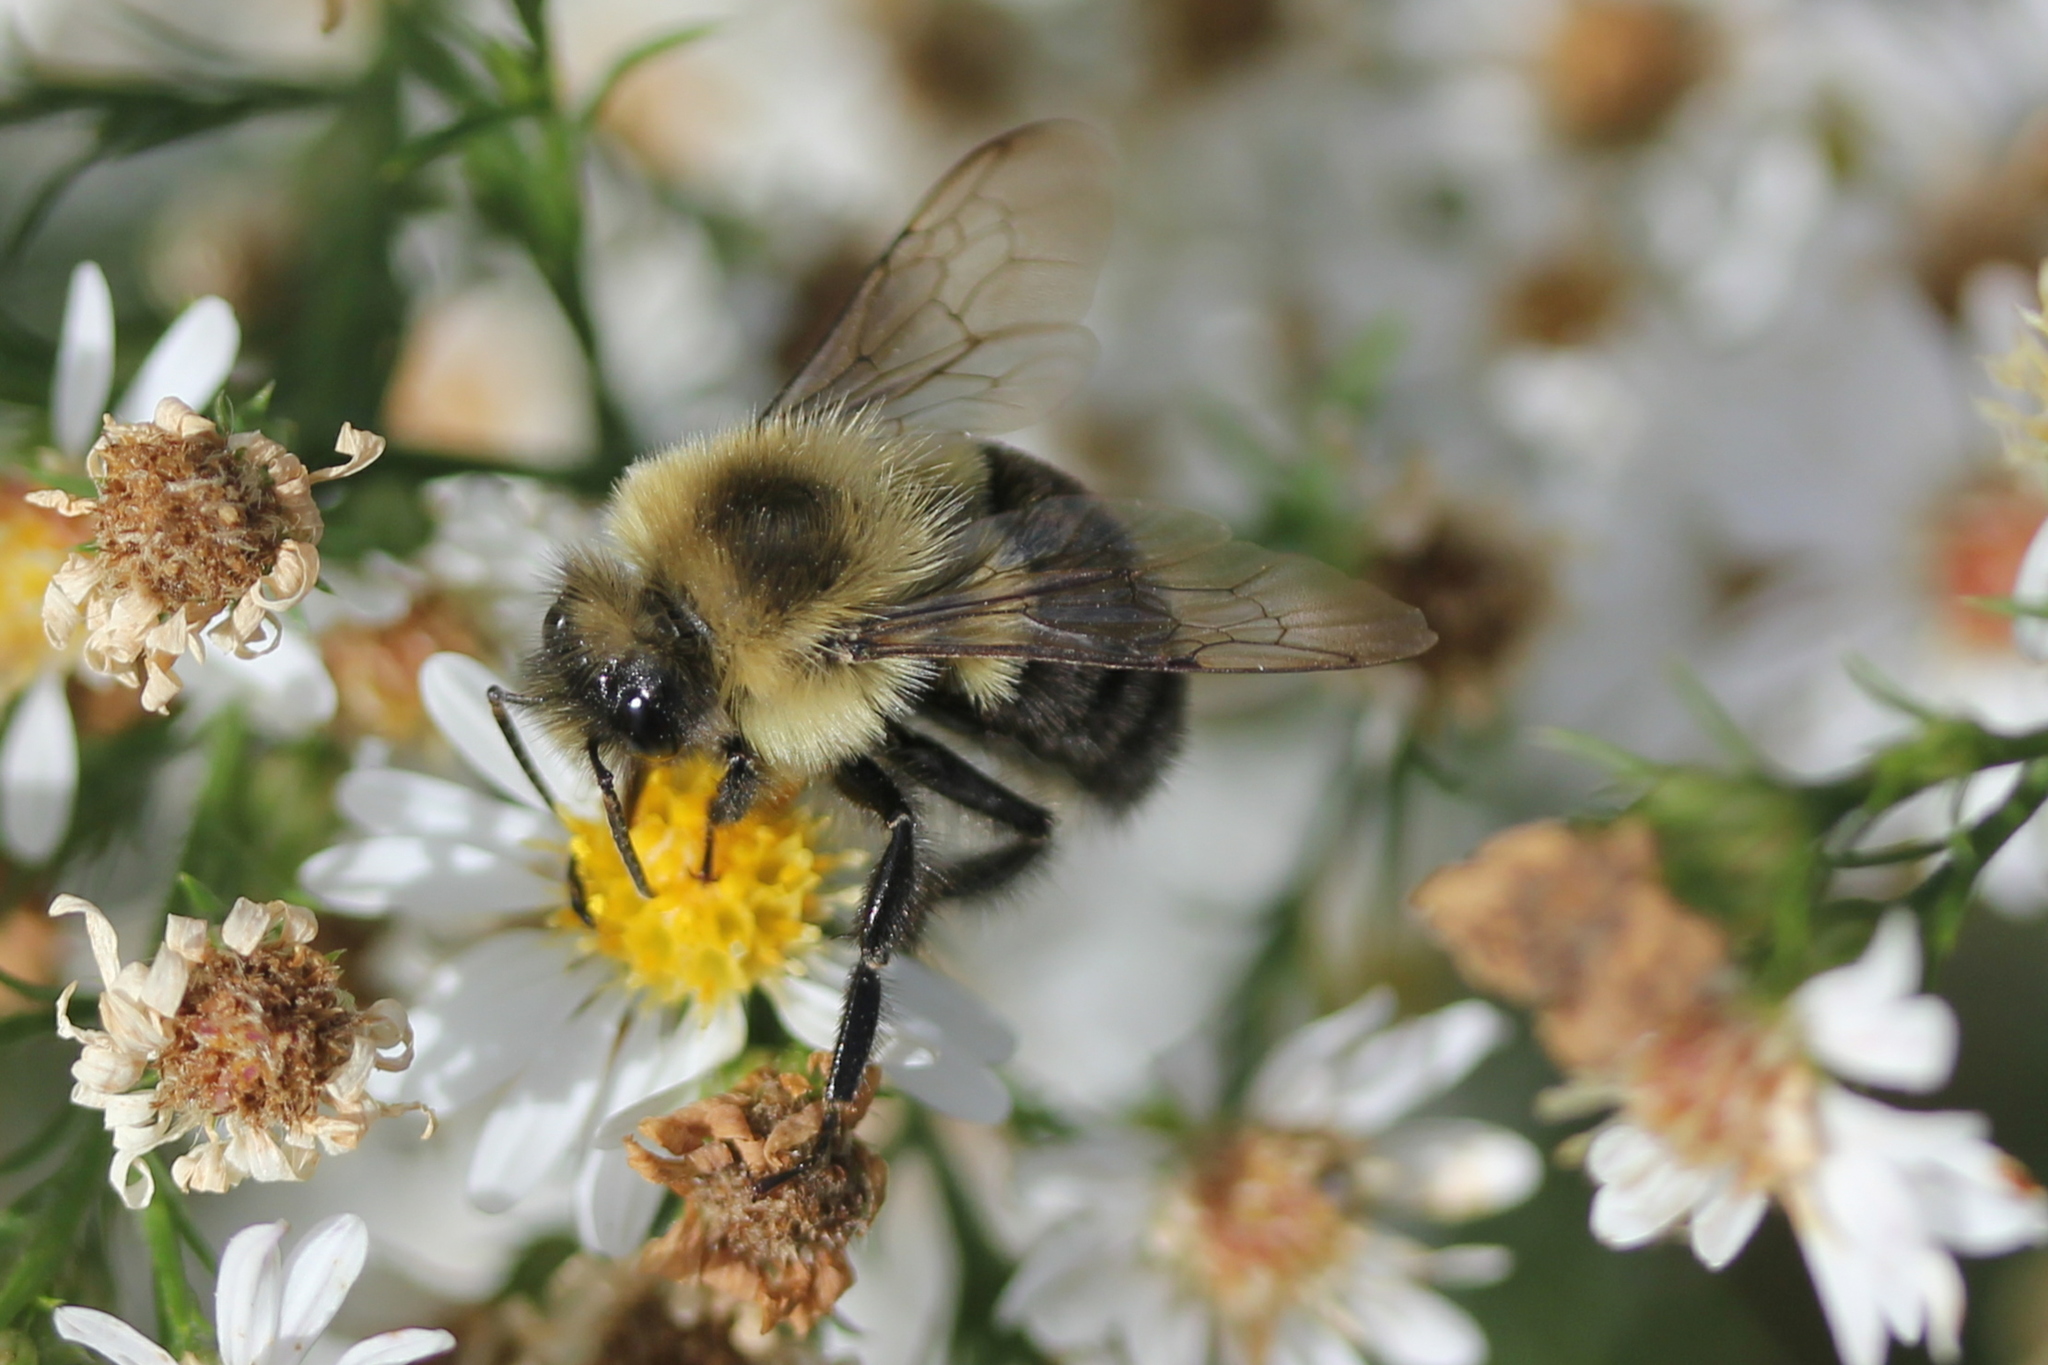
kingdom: Animalia
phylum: Arthropoda
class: Insecta
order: Hymenoptera
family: Apidae
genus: Bombus
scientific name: Bombus impatiens
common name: Common eastern bumble bee
